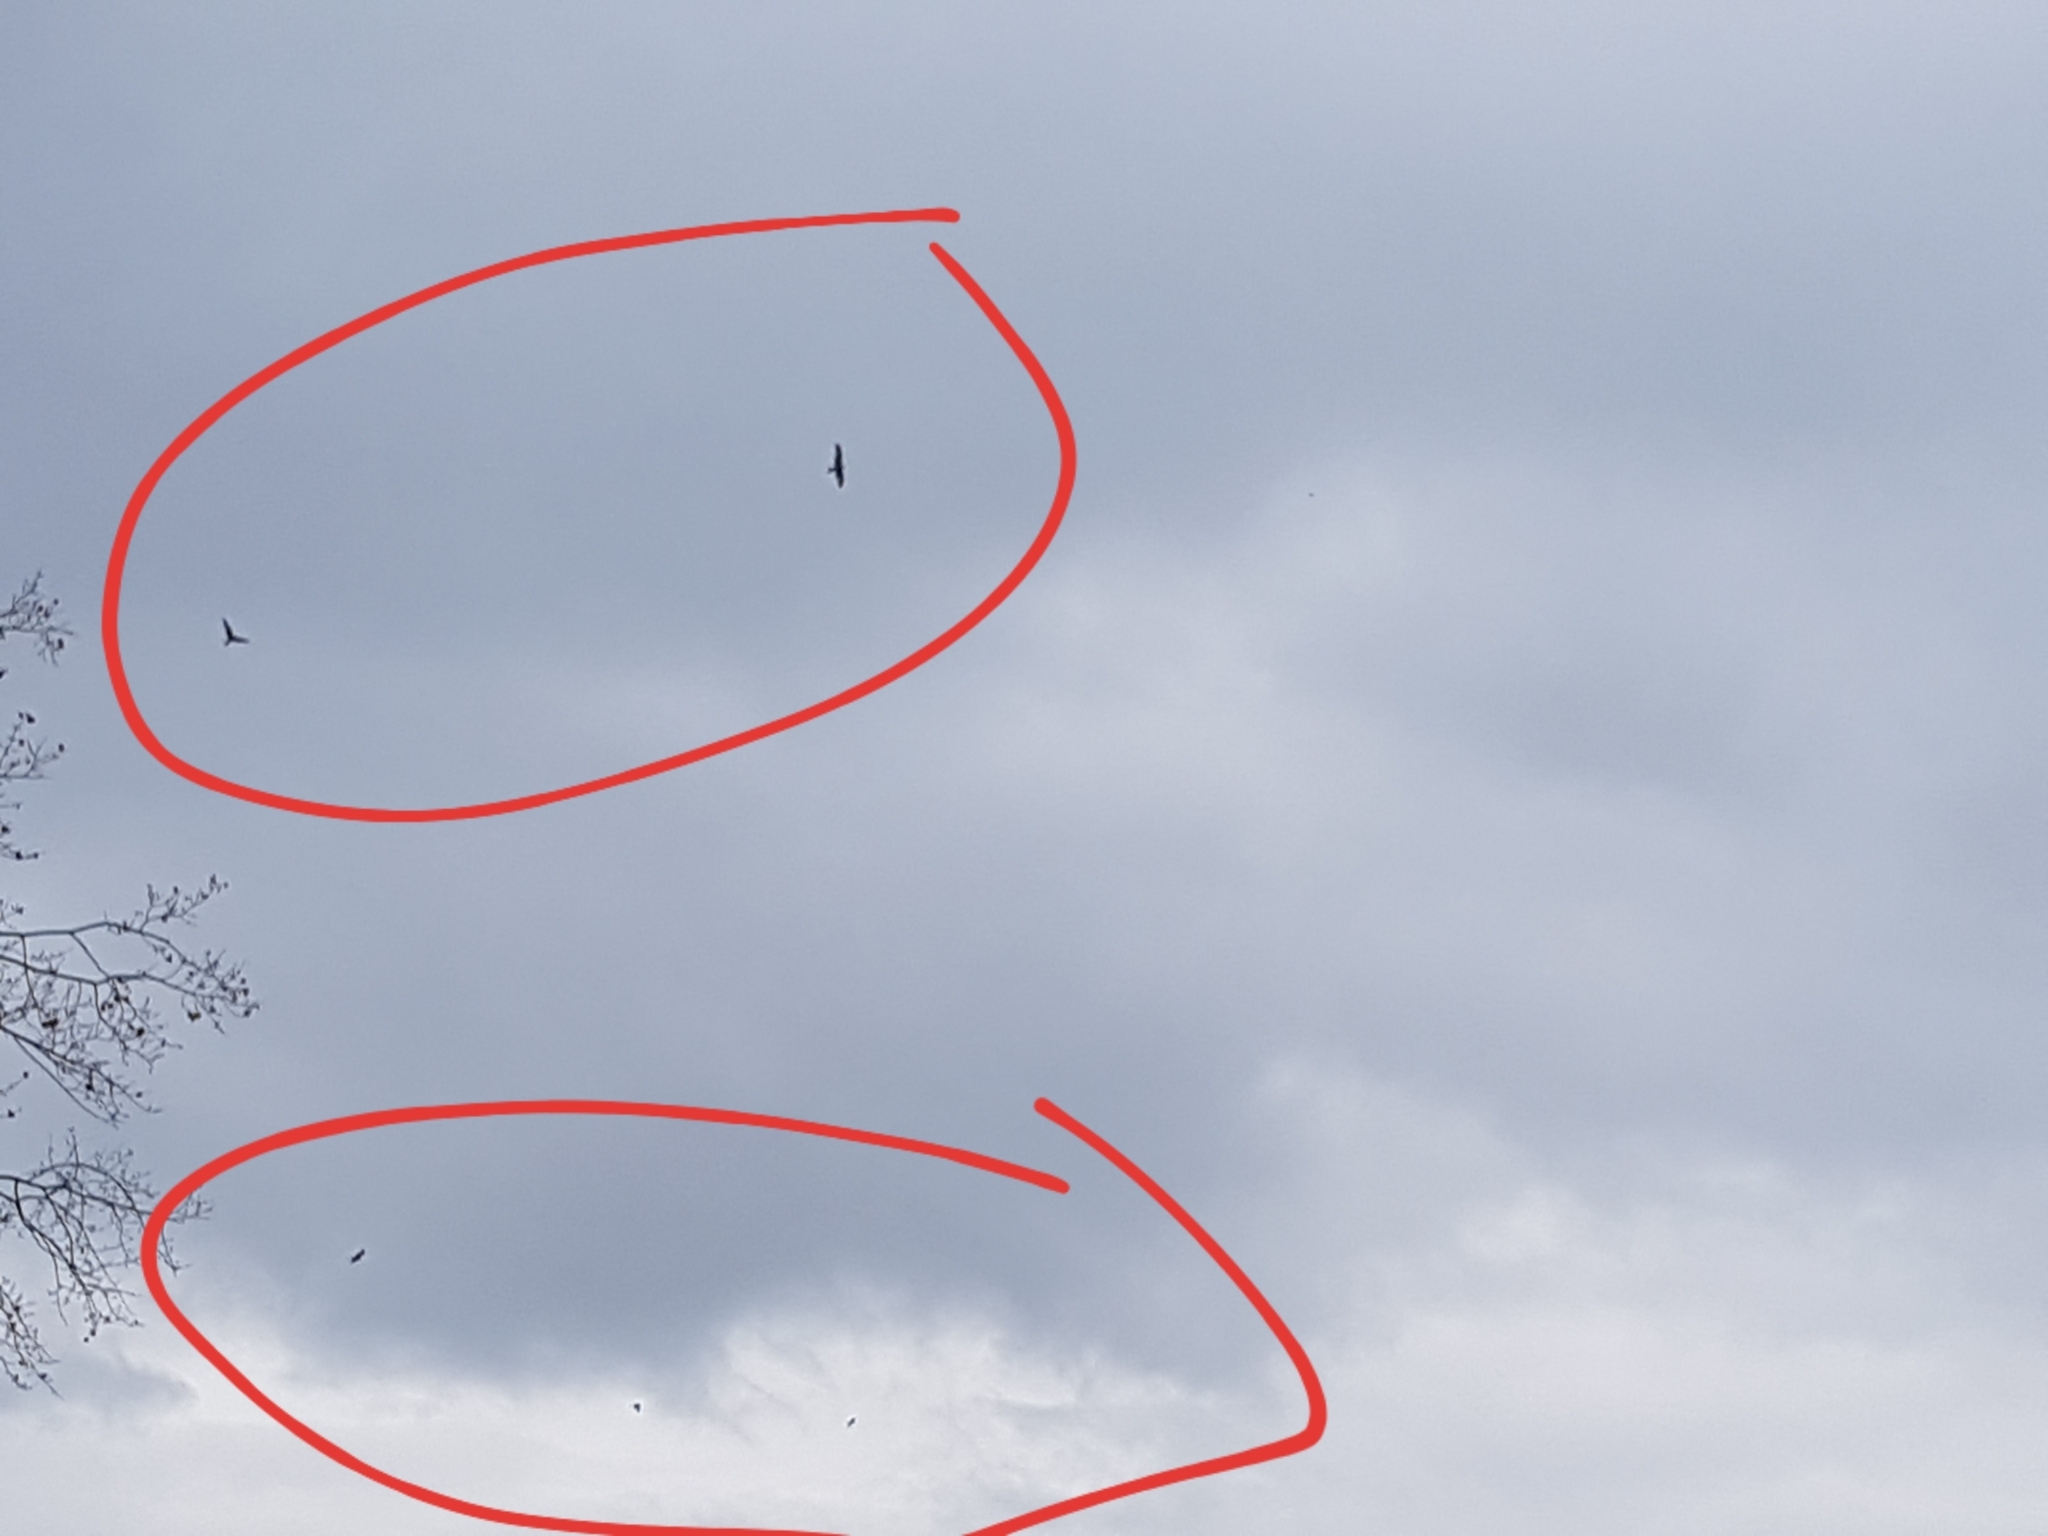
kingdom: Animalia
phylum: Chordata
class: Aves
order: Accipitriformes
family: Accipitridae
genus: Milvus
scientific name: Milvus milvus
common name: Red kite
